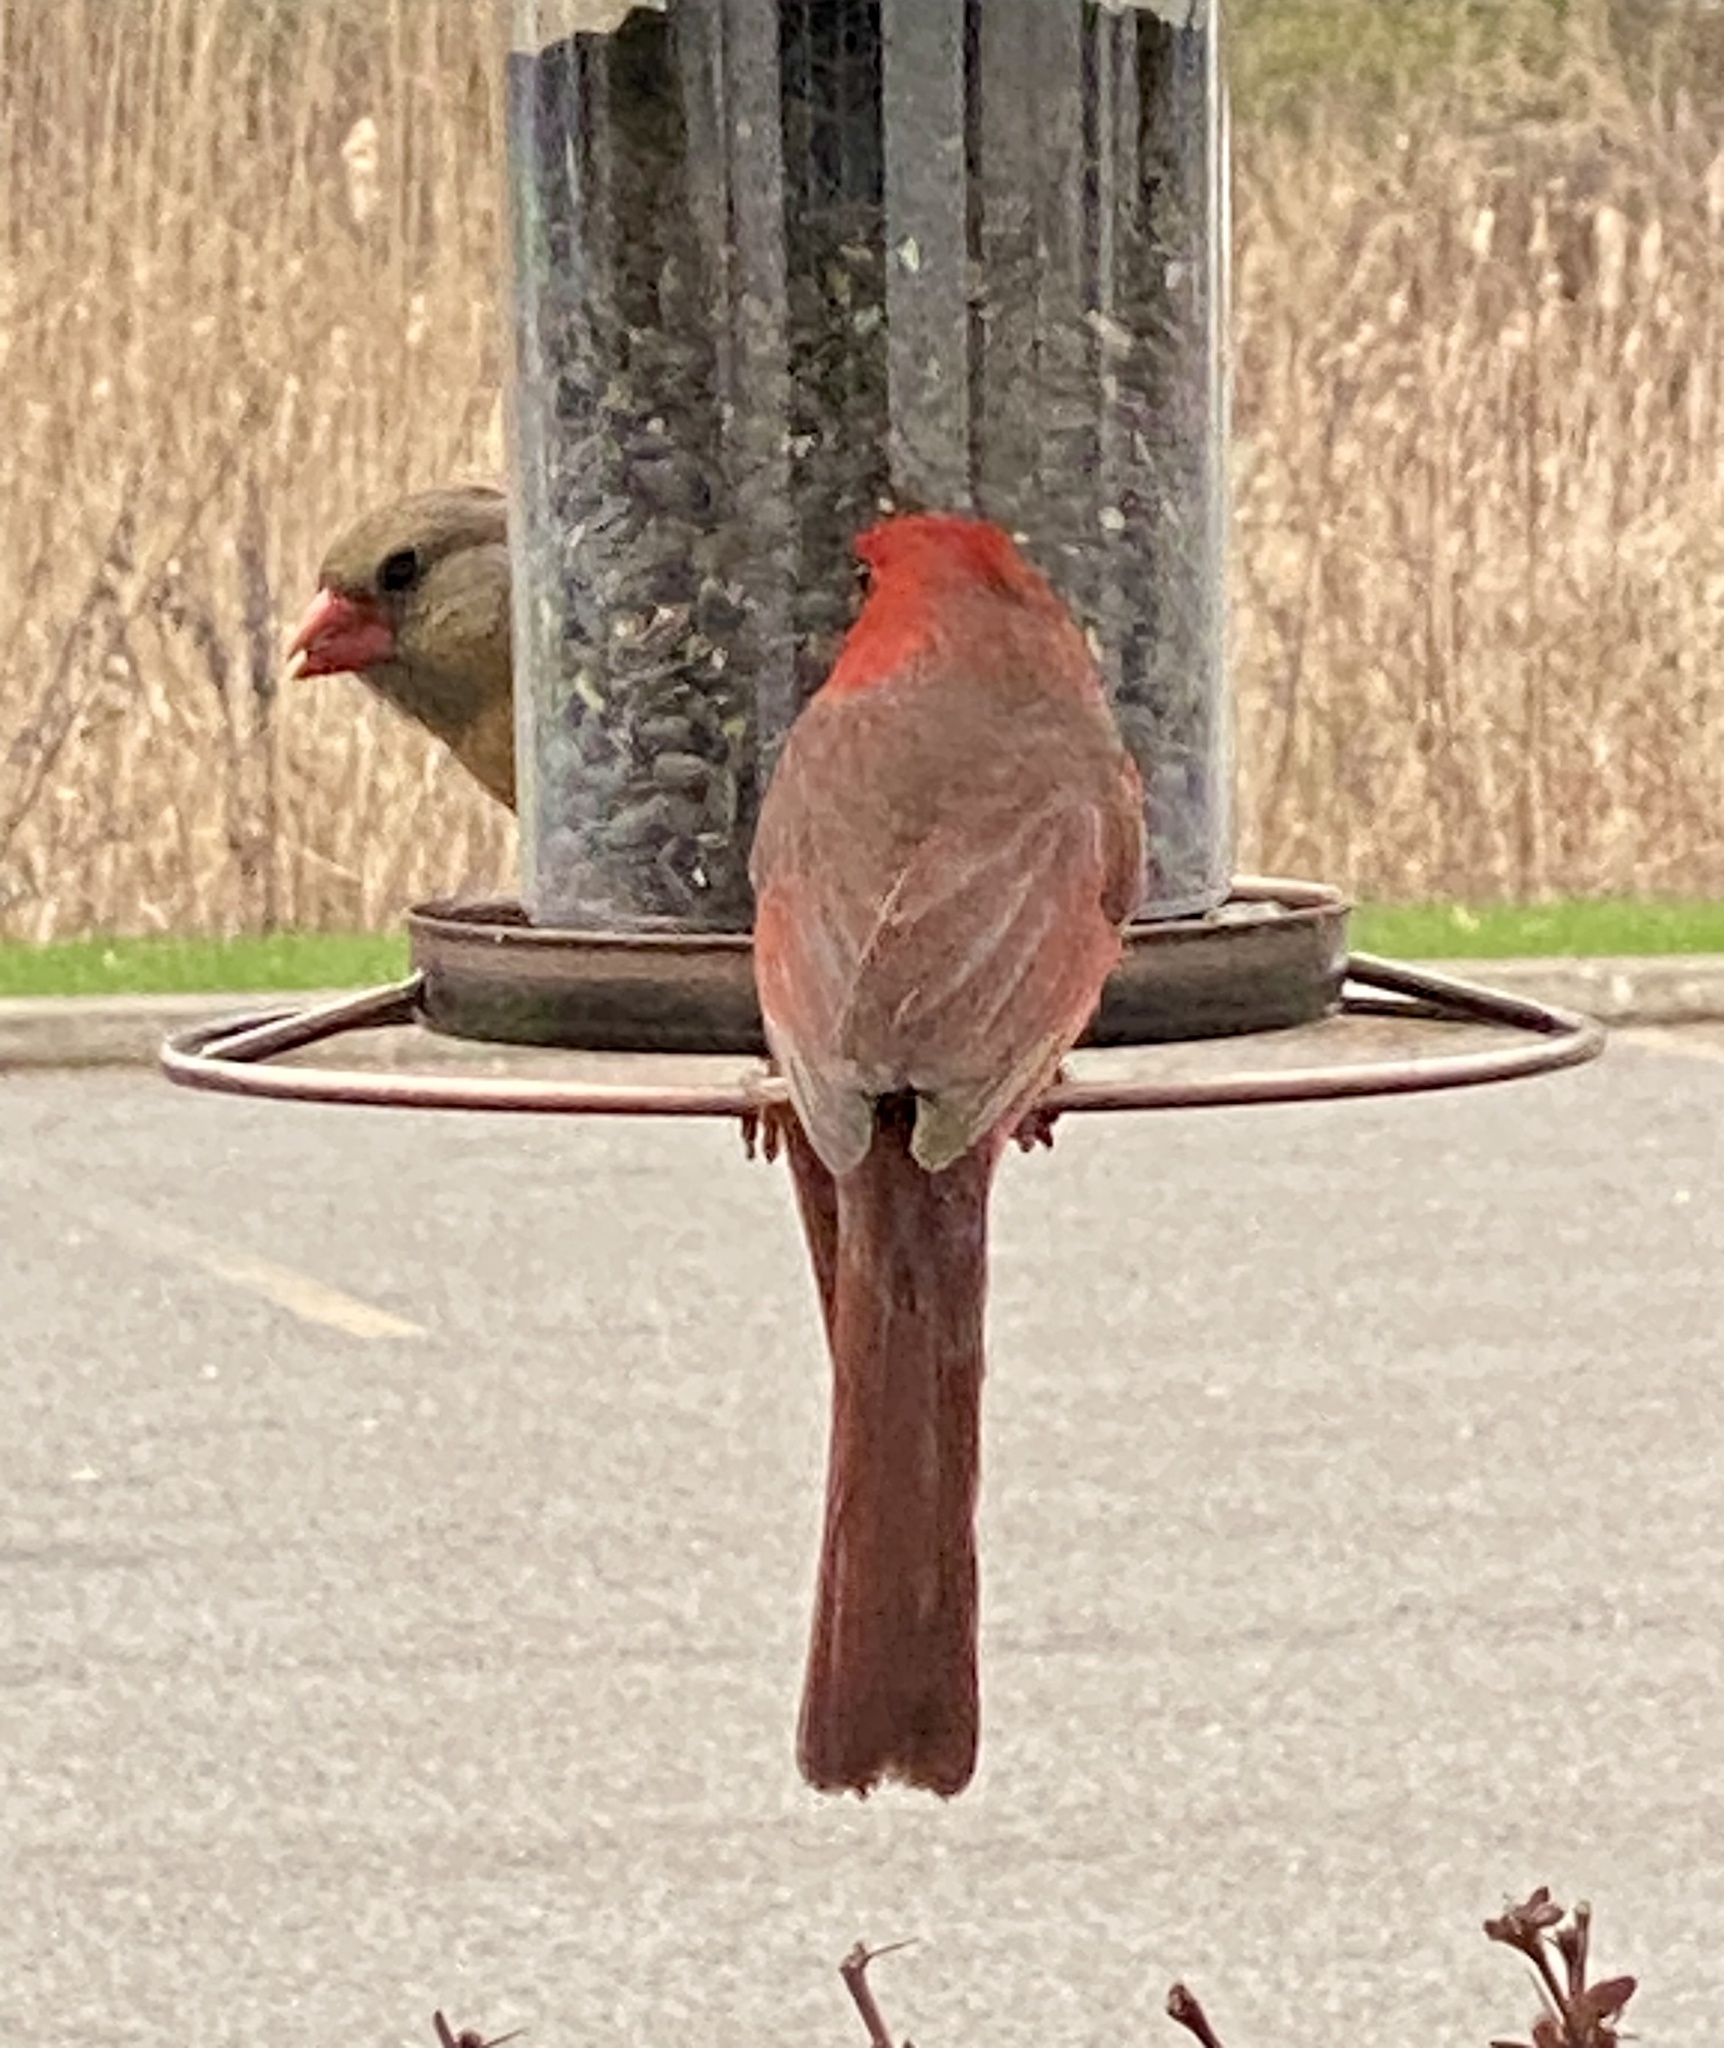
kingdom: Animalia
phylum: Chordata
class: Aves
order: Passeriformes
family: Cardinalidae
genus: Cardinalis
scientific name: Cardinalis cardinalis
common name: Northern cardinal
